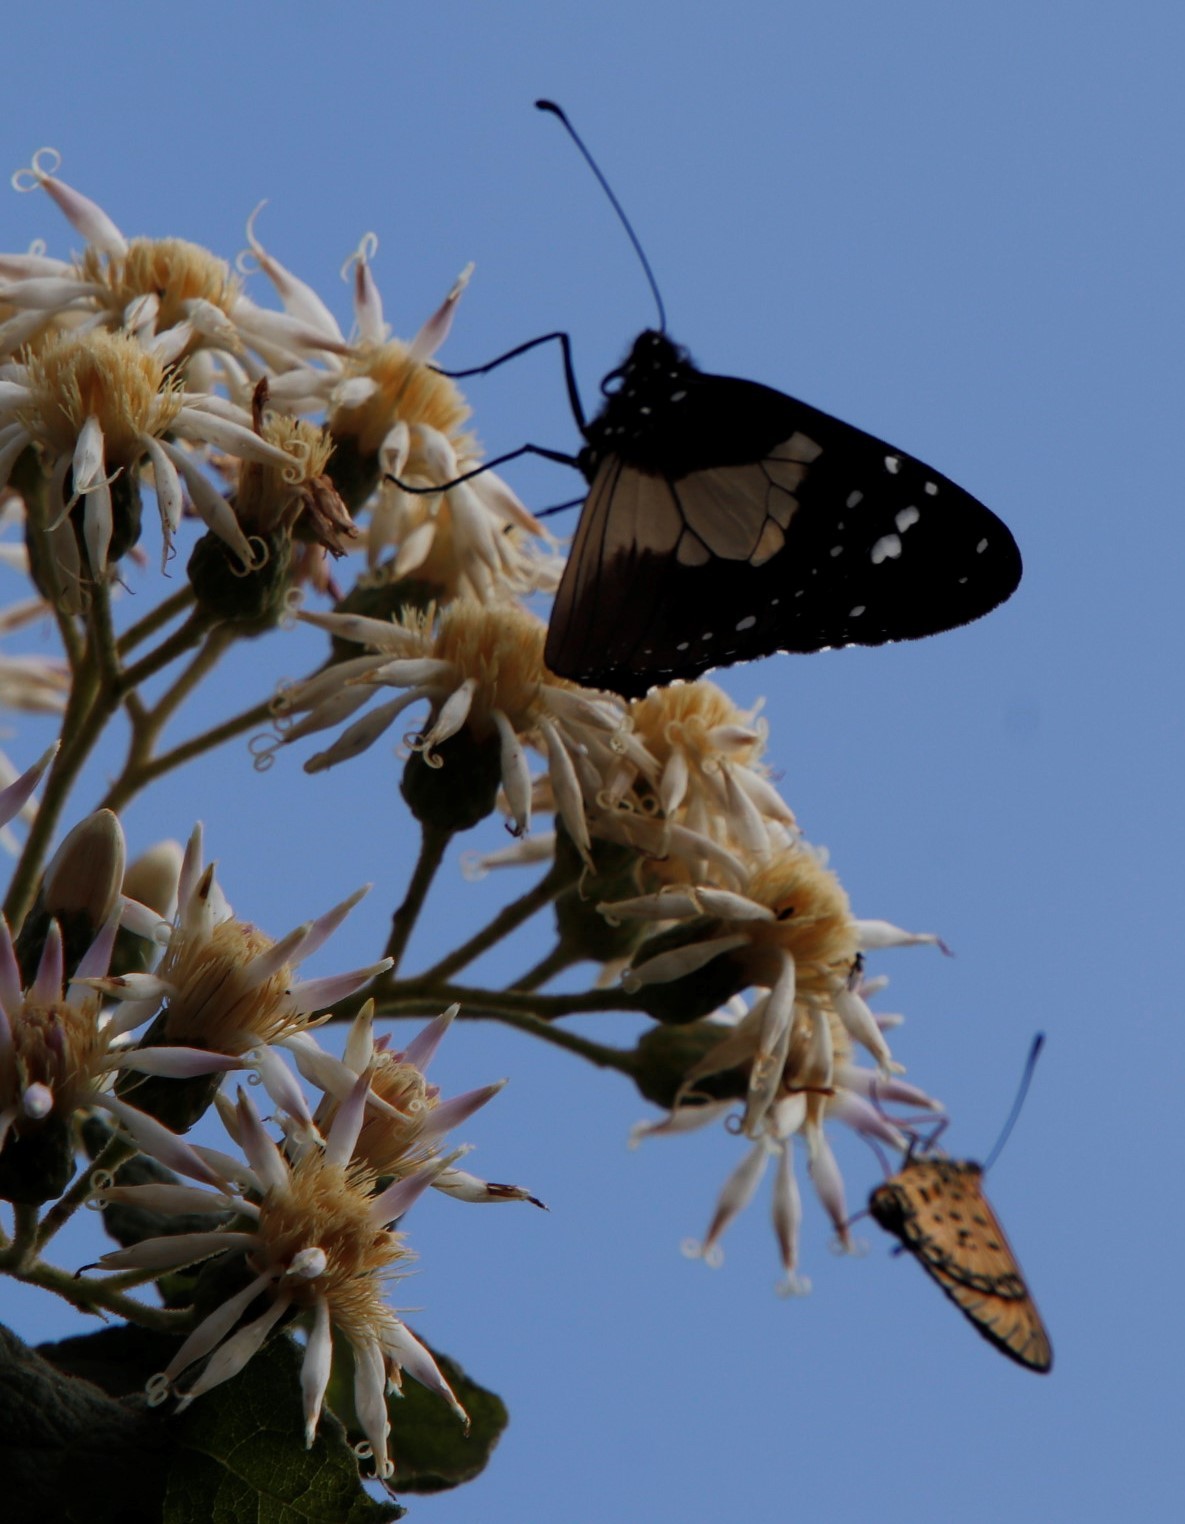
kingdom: Animalia
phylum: Arthropoda
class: Insecta
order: Lepidoptera
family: Nymphalidae
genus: Danaus
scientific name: Danaus chrysippus
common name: Plain tiger
